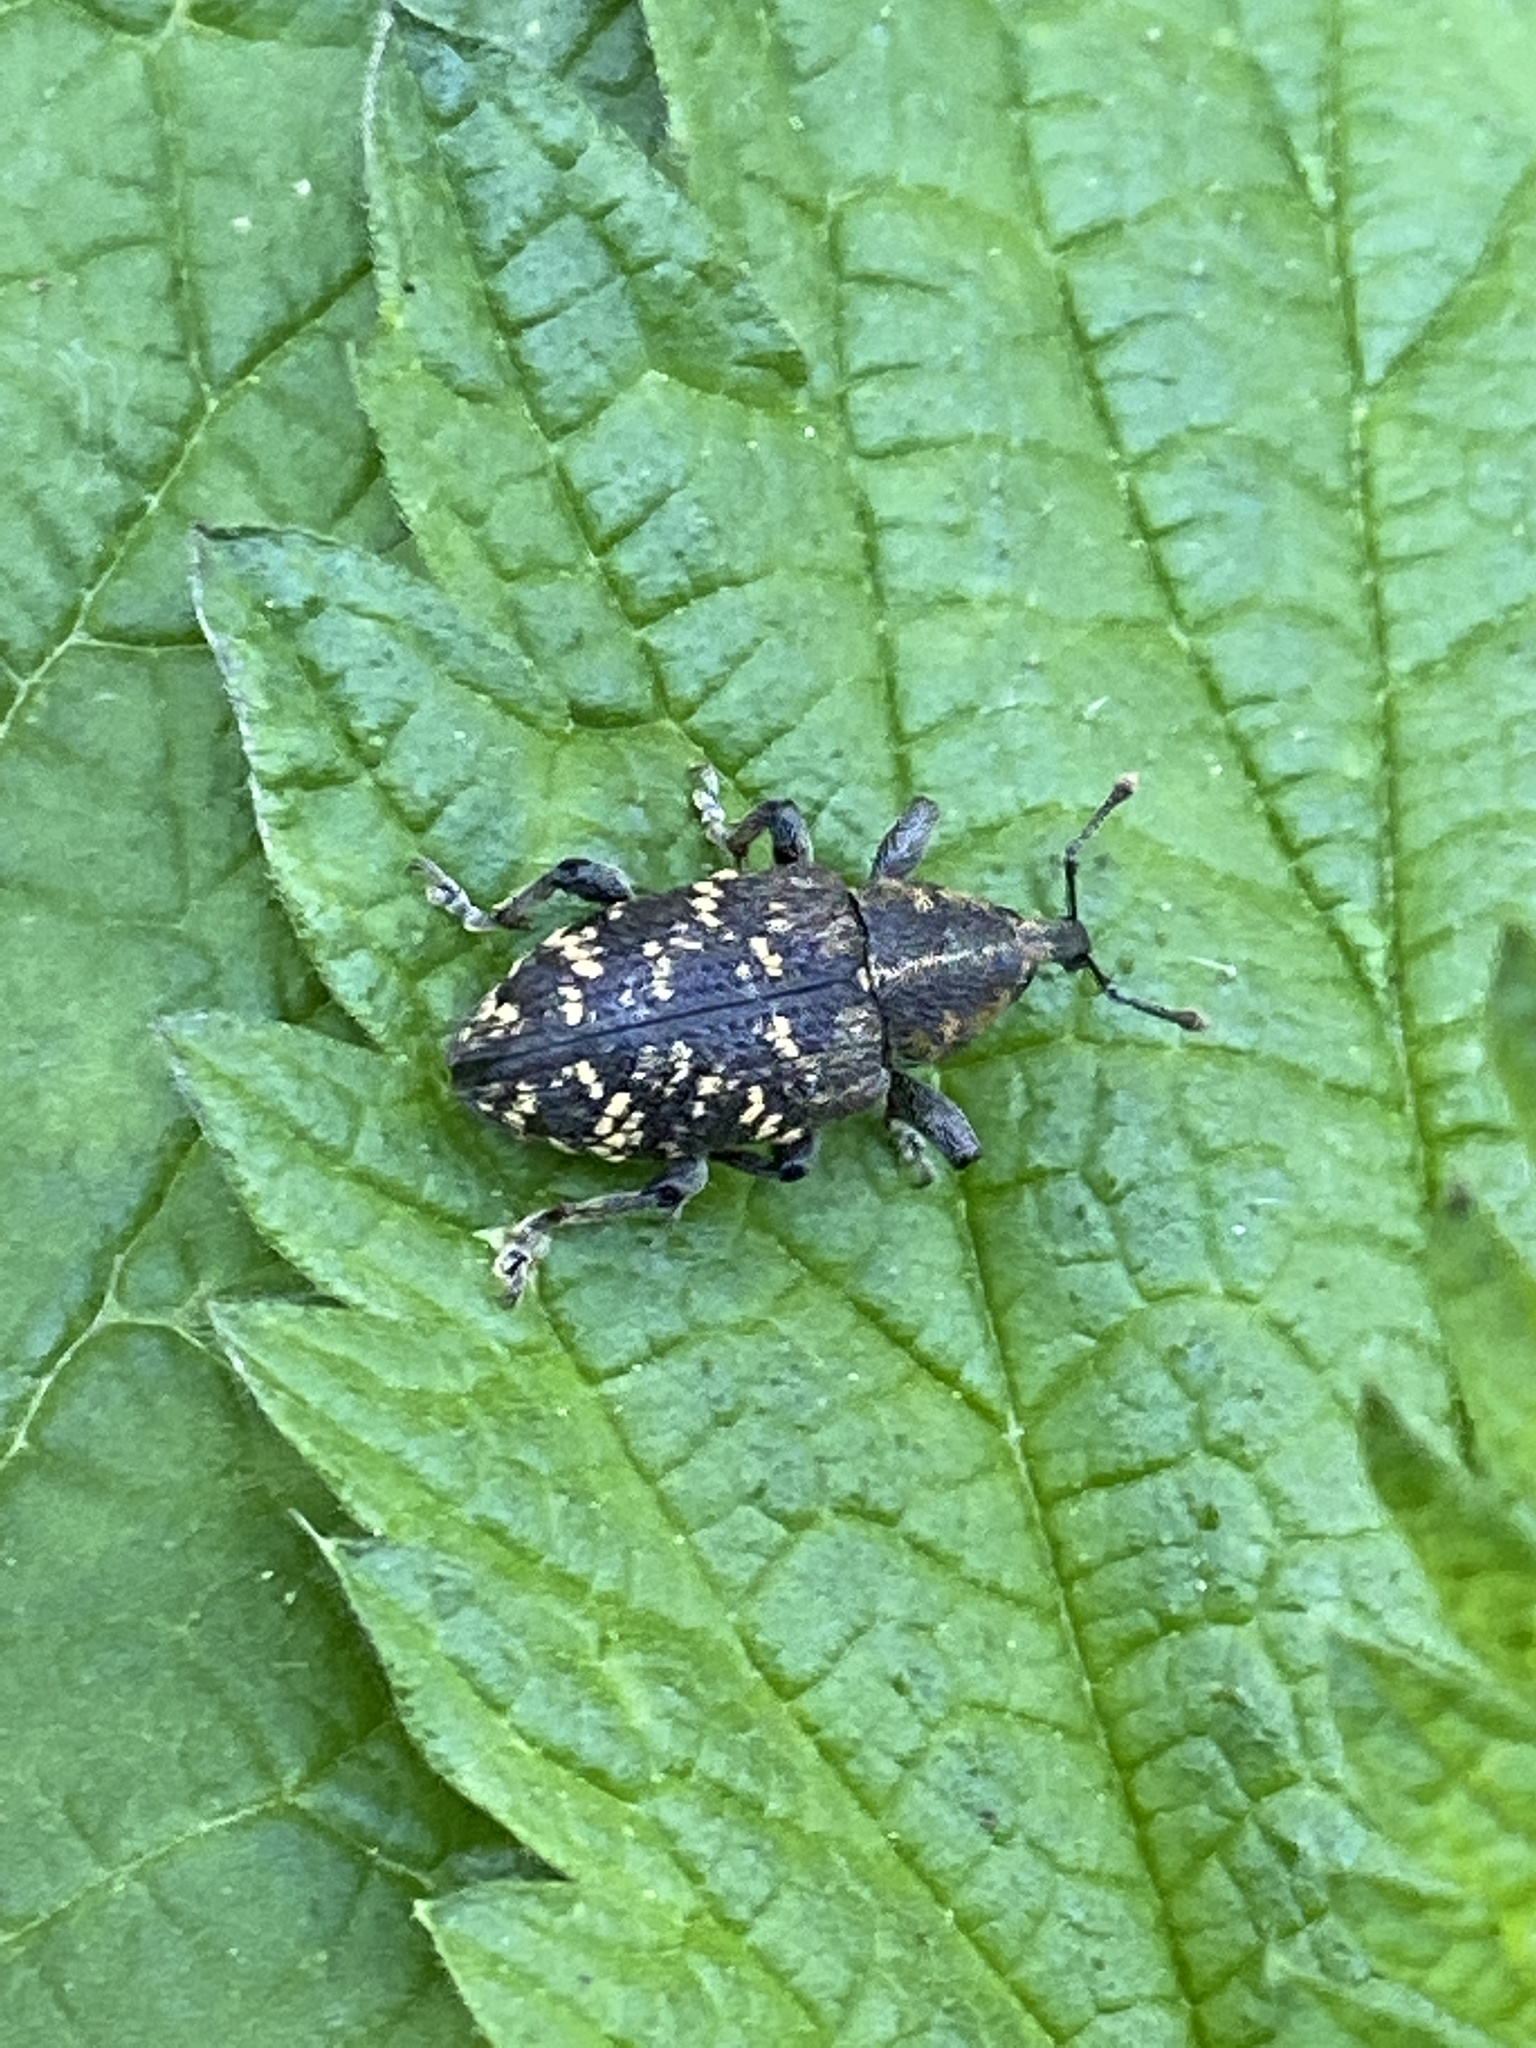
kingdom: Animalia
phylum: Arthropoda
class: Insecta
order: Coleoptera
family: Curculionidae
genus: Hylobius
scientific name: Hylobius abietis
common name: Large pine weevil
